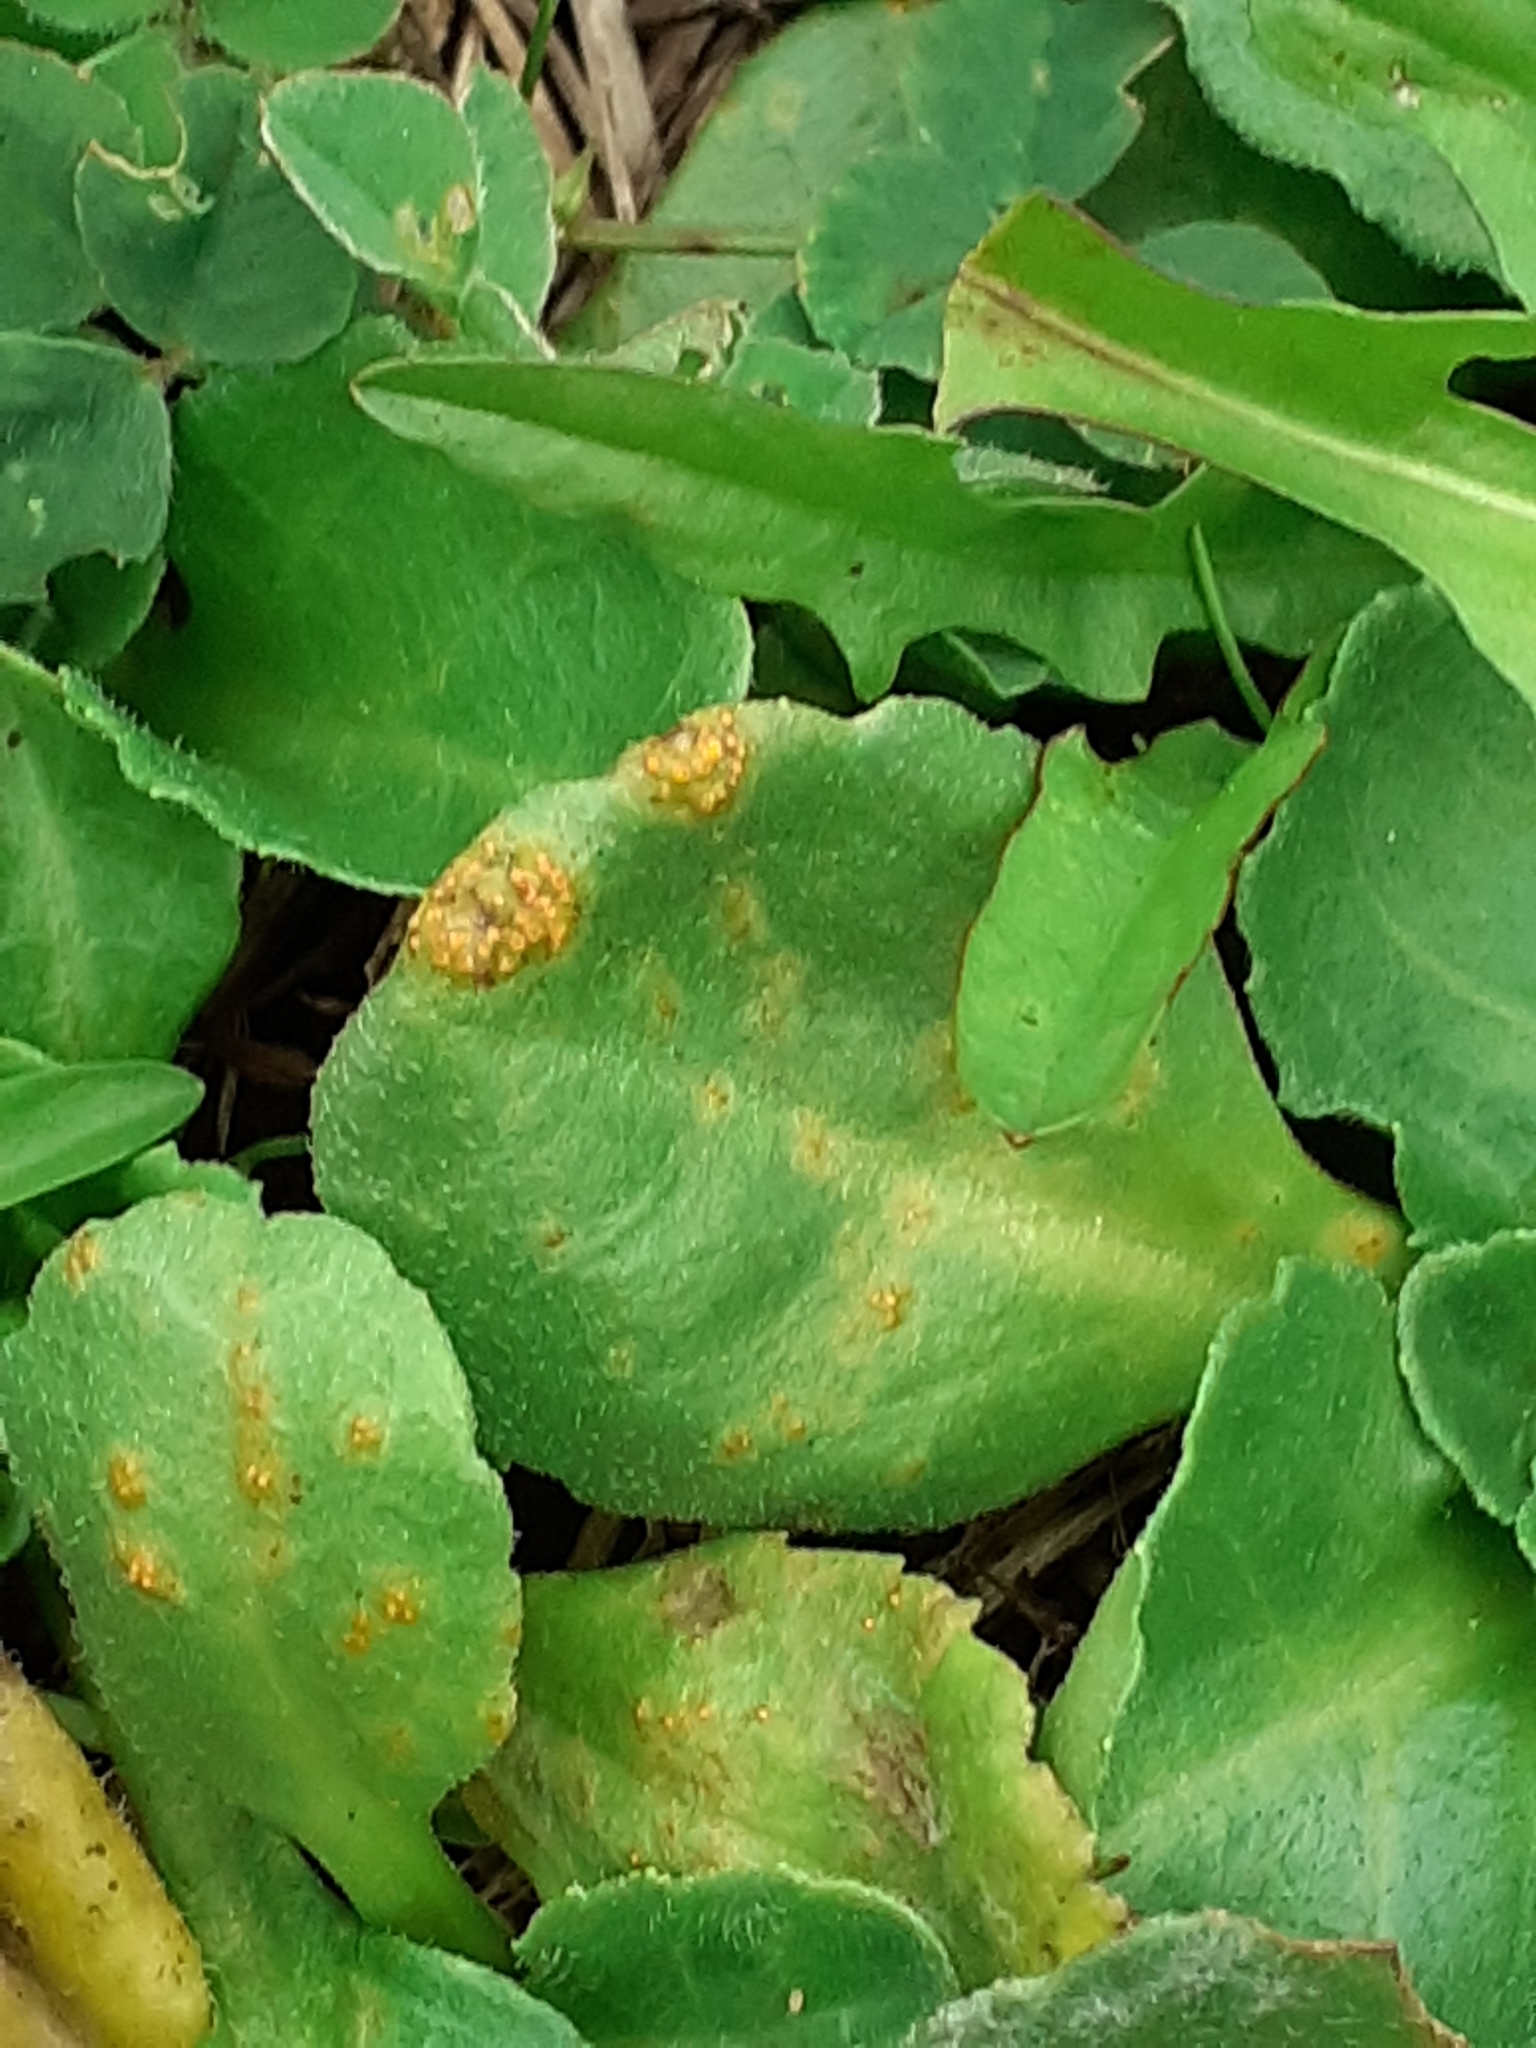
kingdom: Fungi
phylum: Basidiomycota
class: Pucciniomycetes
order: Pucciniales
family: Pucciniaceae
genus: Puccinia
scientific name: Puccinia lagenophorae
